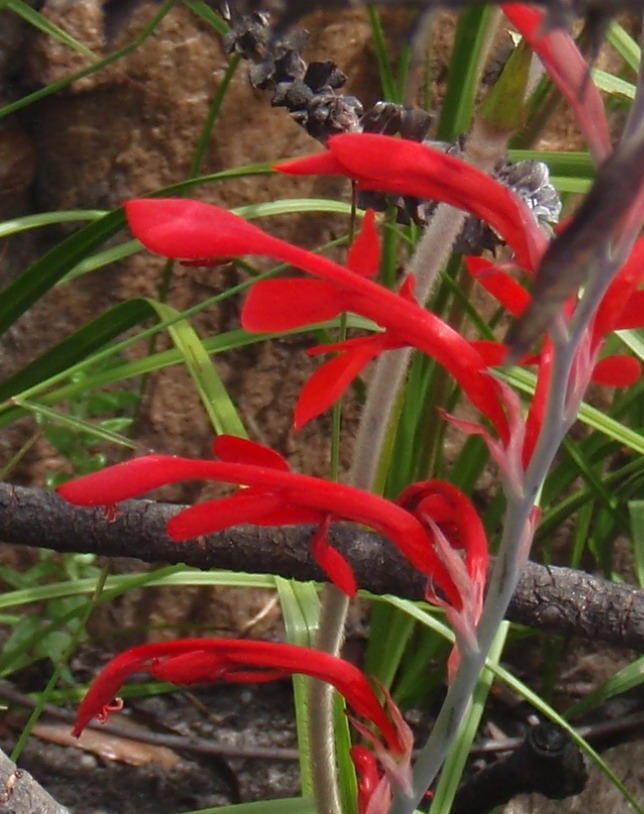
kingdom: Plantae
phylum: Tracheophyta
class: Liliopsida
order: Asparagales
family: Iridaceae
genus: Tritoniopsis
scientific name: Tritoniopsis caffra
